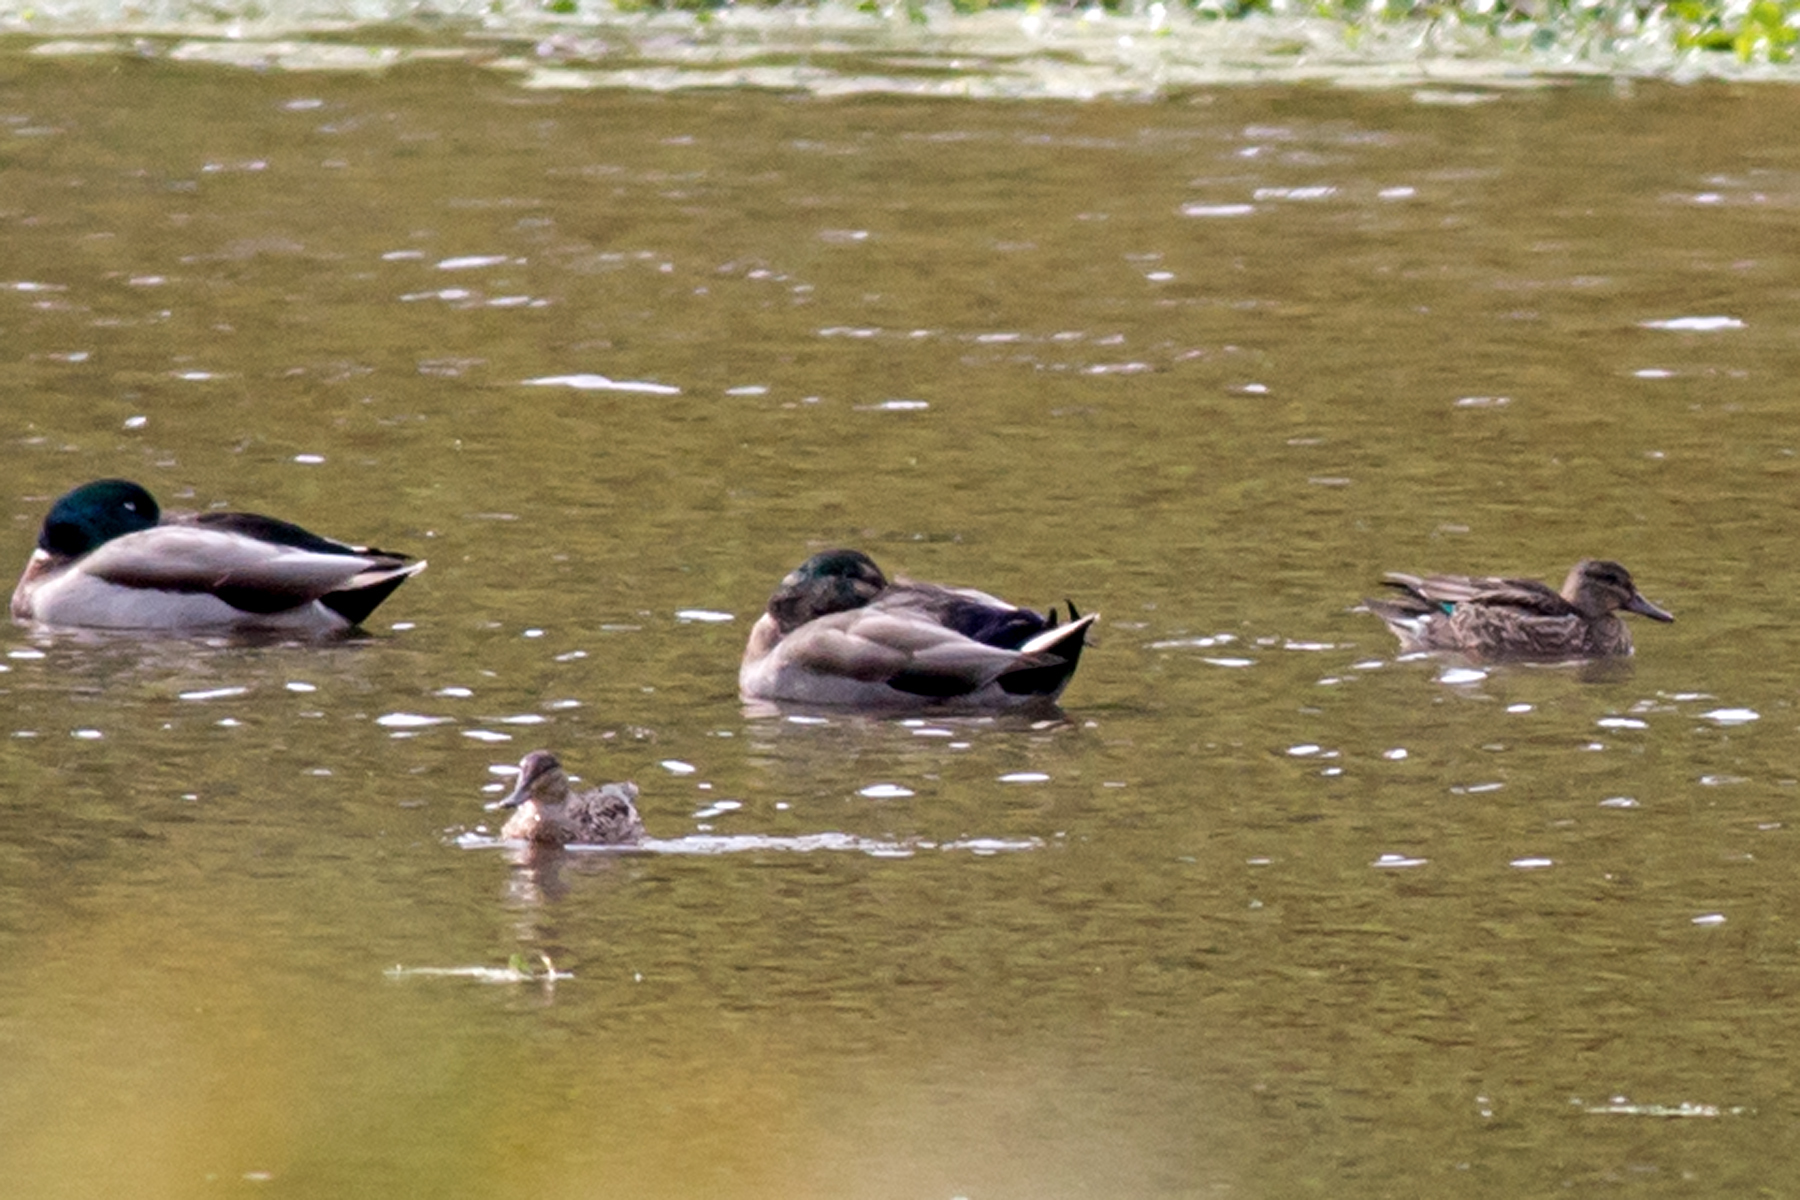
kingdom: Animalia
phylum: Chordata
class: Aves
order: Anseriformes
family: Anatidae
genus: Anas
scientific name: Anas crecca
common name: Eurasian teal
